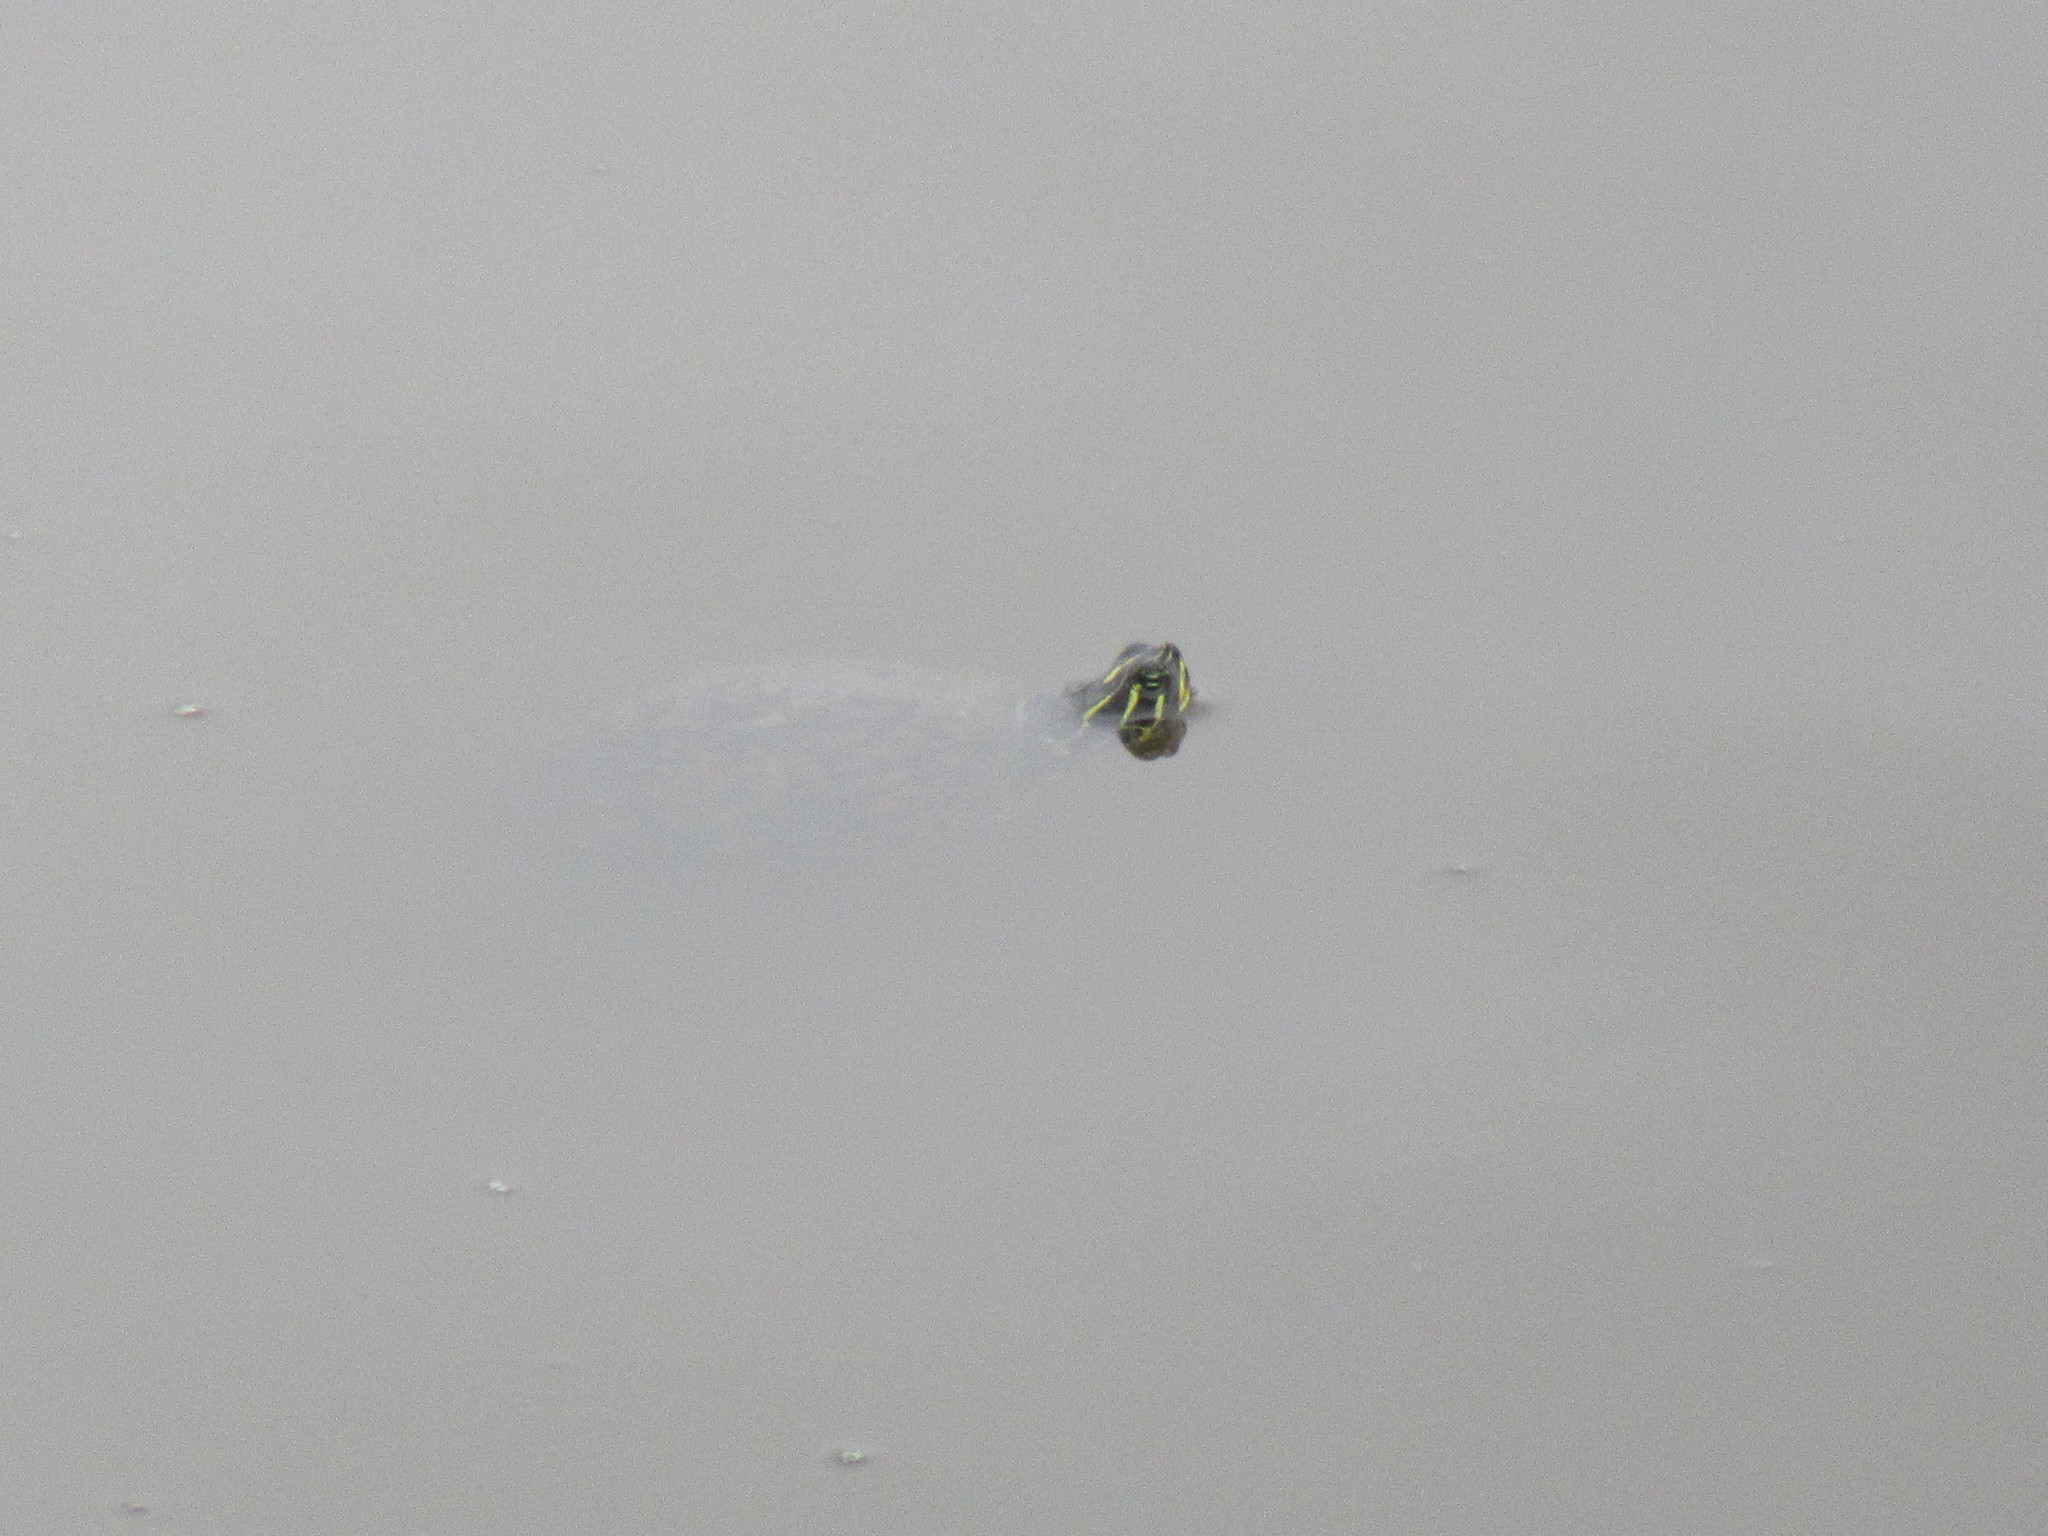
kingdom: Animalia
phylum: Chordata
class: Testudines
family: Emydidae
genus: Pseudemys
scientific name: Pseudemys peninsularis
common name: Peninsula cooter
